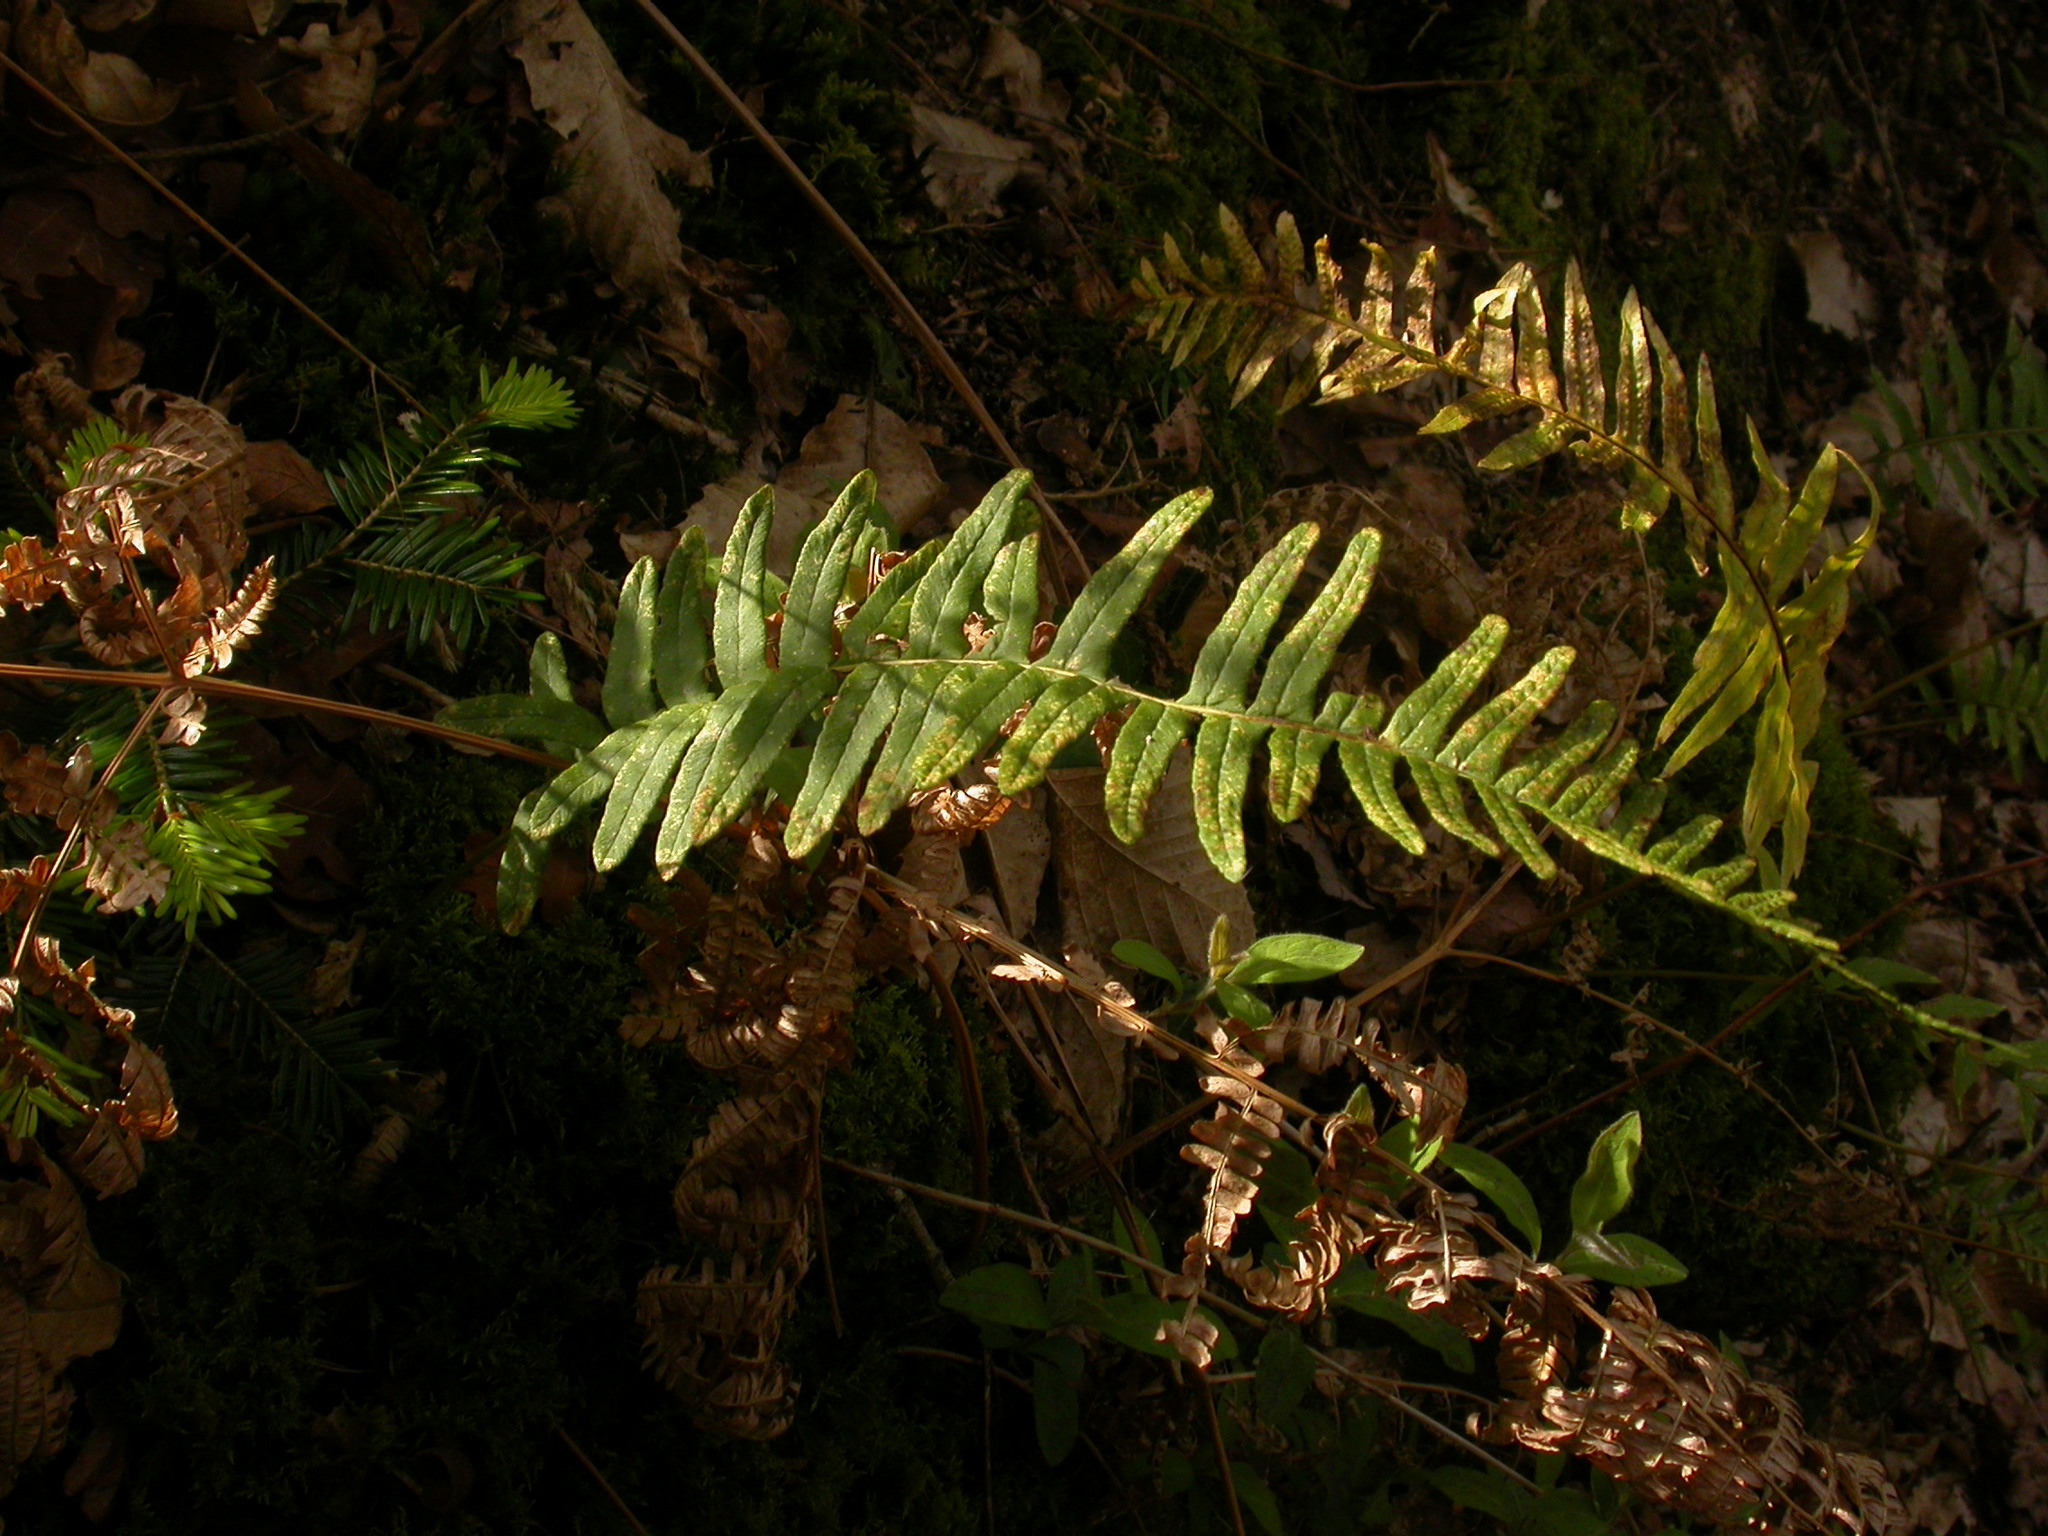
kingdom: Plantae
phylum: Tracheophyta
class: Polypodiopsida
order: Polypodiales
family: Polypodiaceae
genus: Polypodium
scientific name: Polypodium vulgare
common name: Common polypody
